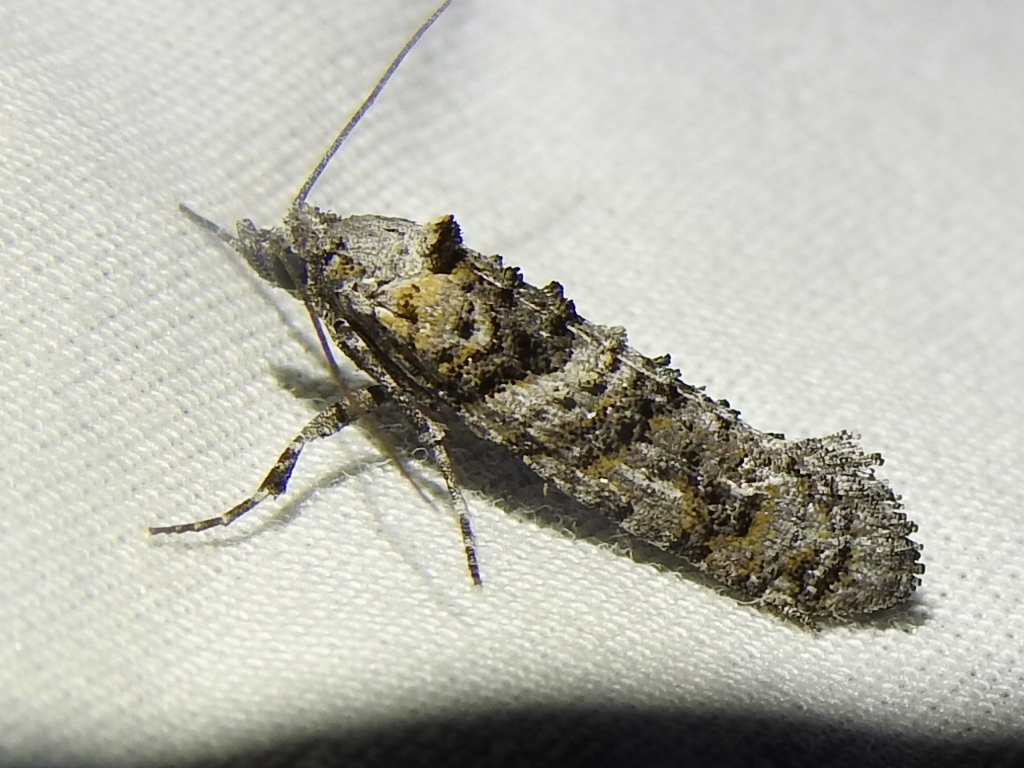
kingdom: Animalia
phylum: Arthropoda
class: Insecta
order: Lepidoptera
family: Tineidae
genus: Dyotopasta
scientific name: Dyotopasta yumaella
